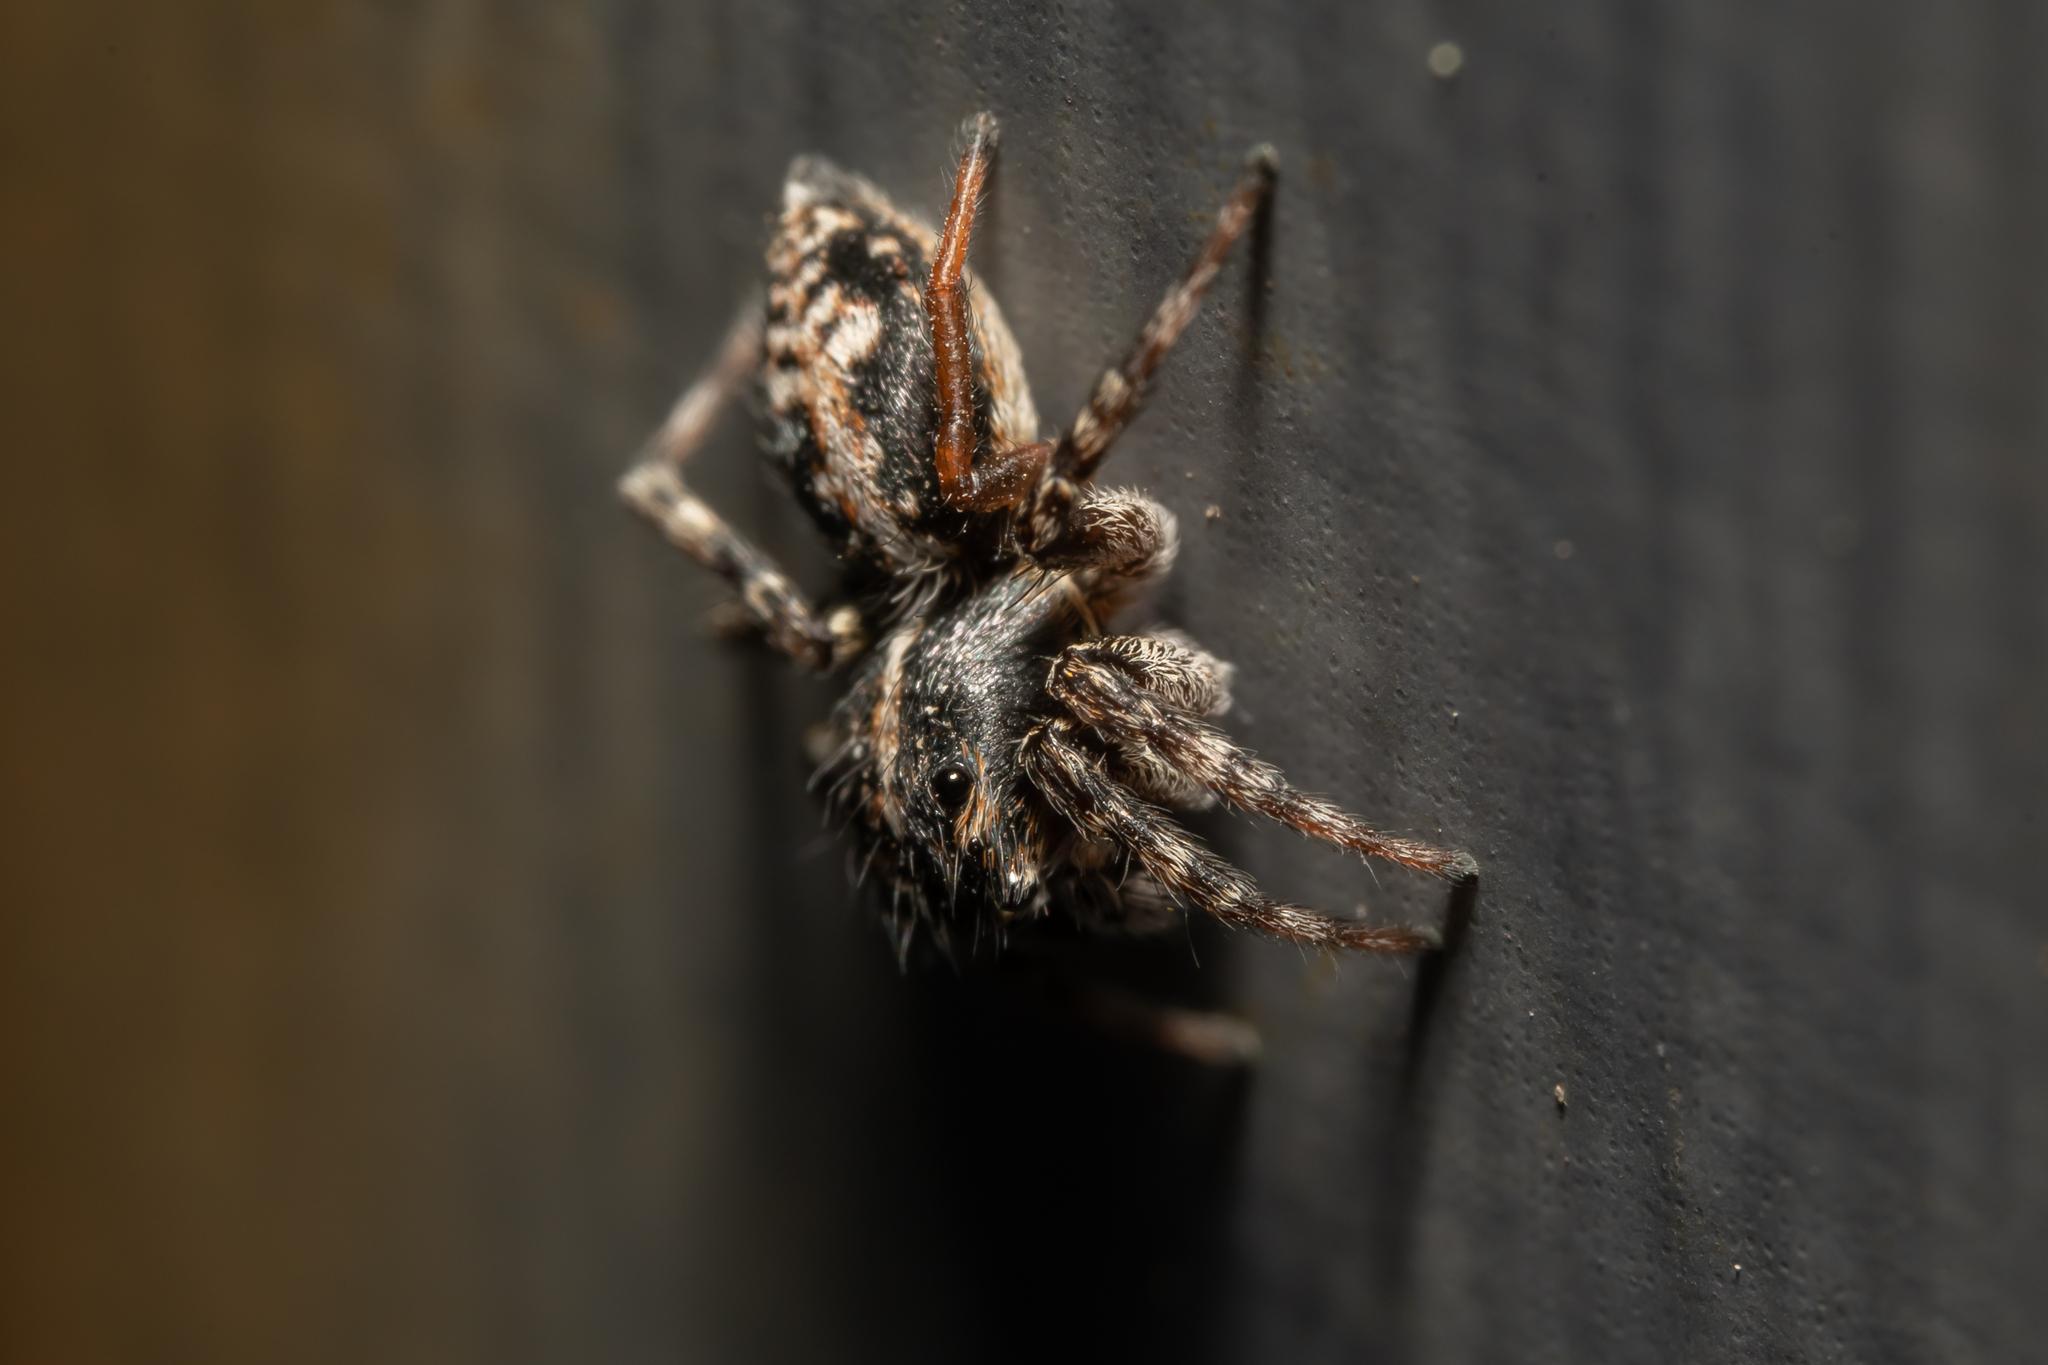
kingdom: Animalia
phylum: Arthropoda
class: Arachnida
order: Araneae
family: Salticidae
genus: Attulus
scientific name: Attulus terebratus
